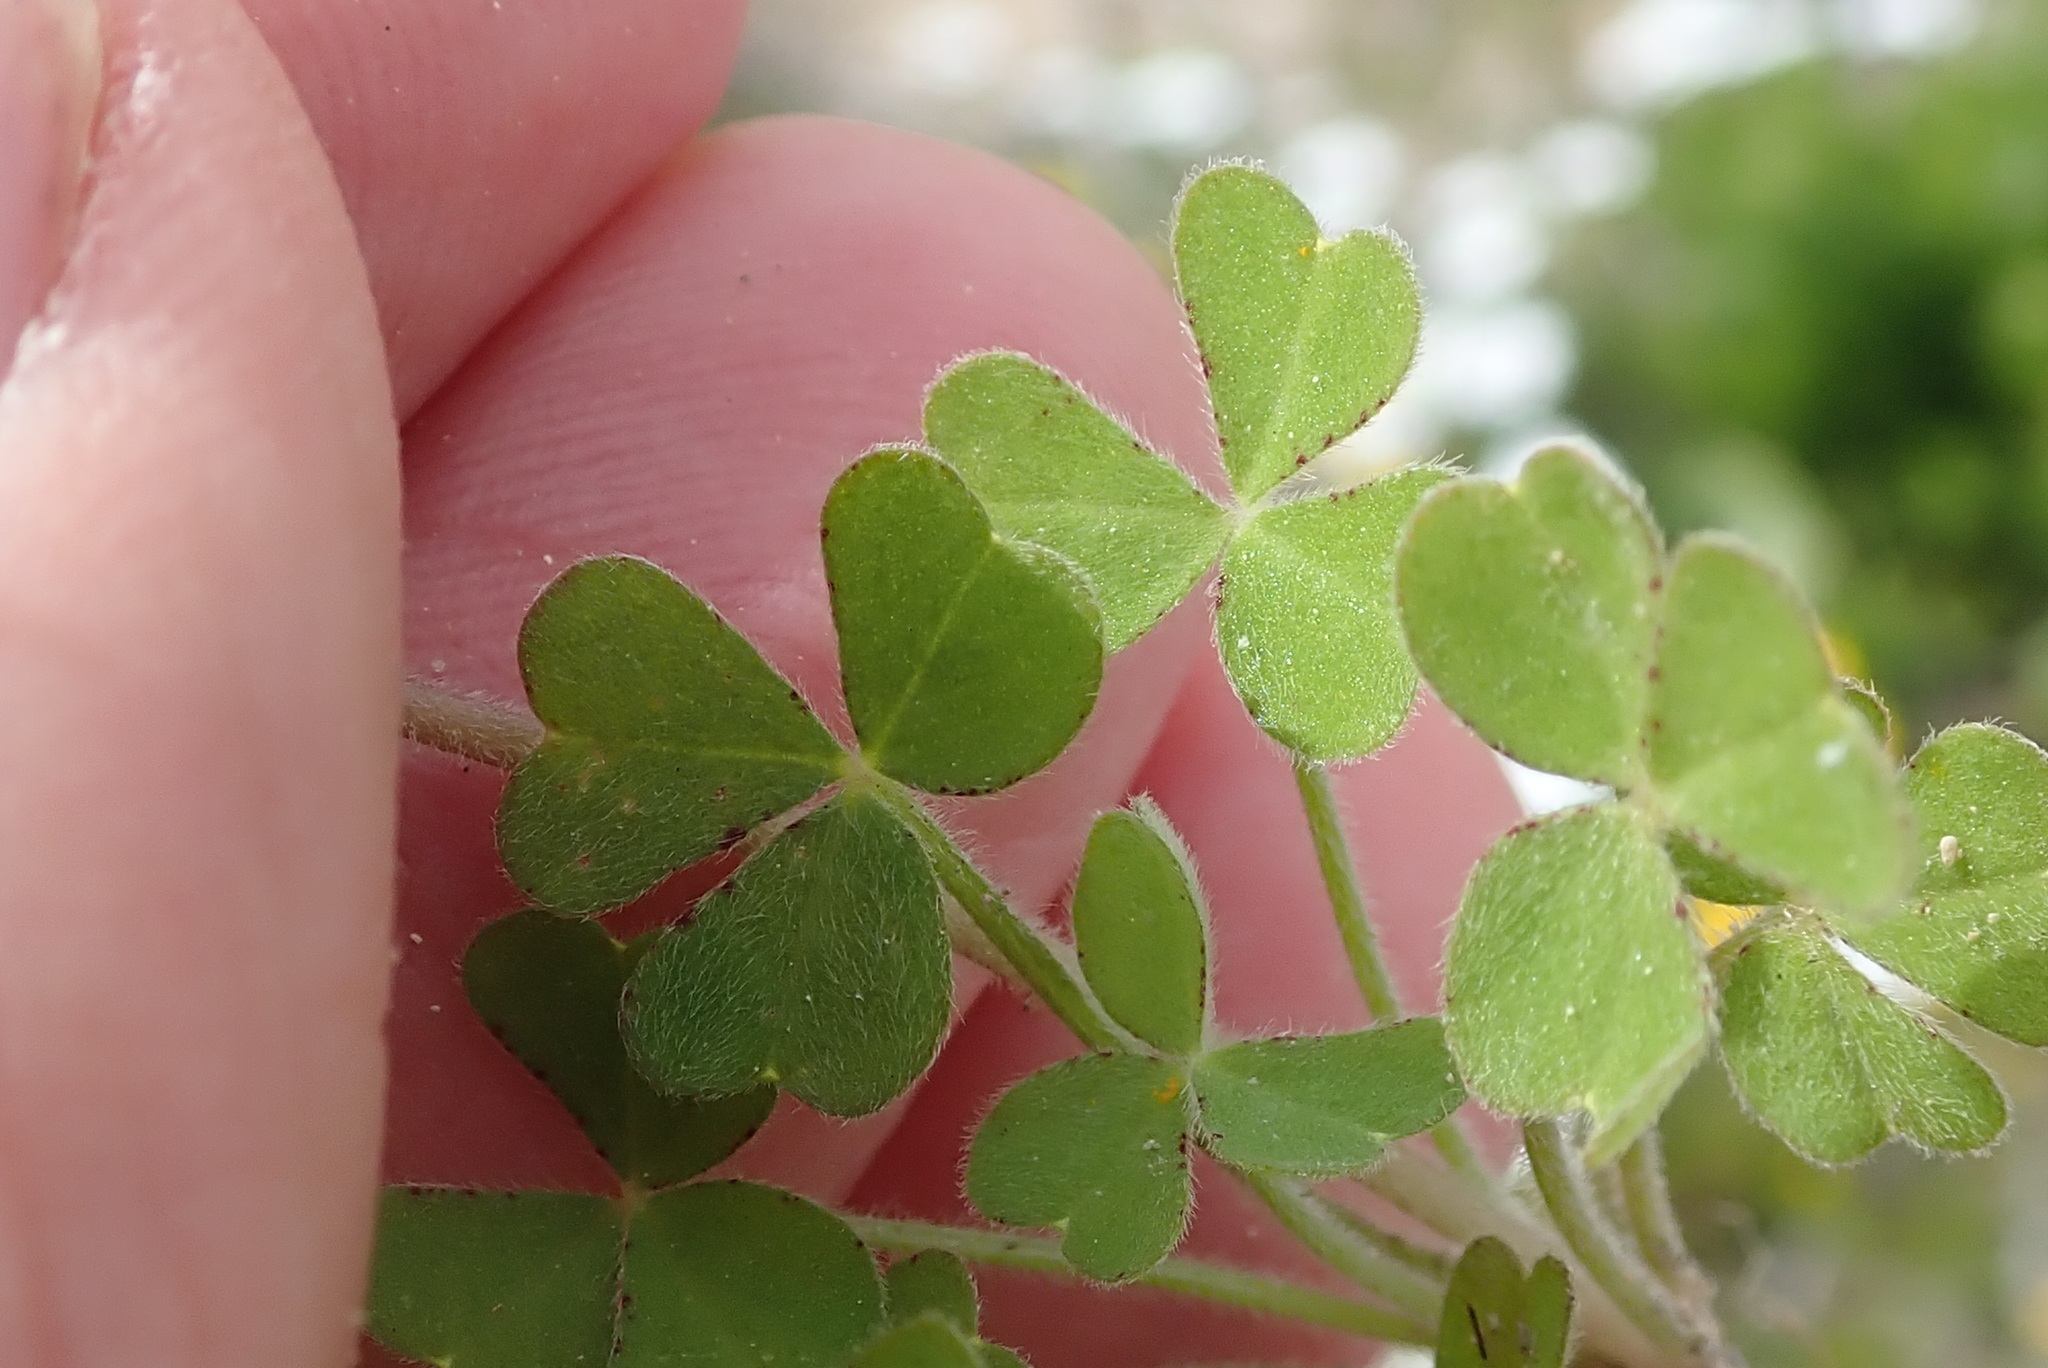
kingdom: Plantae
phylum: Tracheophyta
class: Magnoliopsida
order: Oxalidales
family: Oxalidaceae
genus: Oxalis
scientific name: Oxalis obtusa
